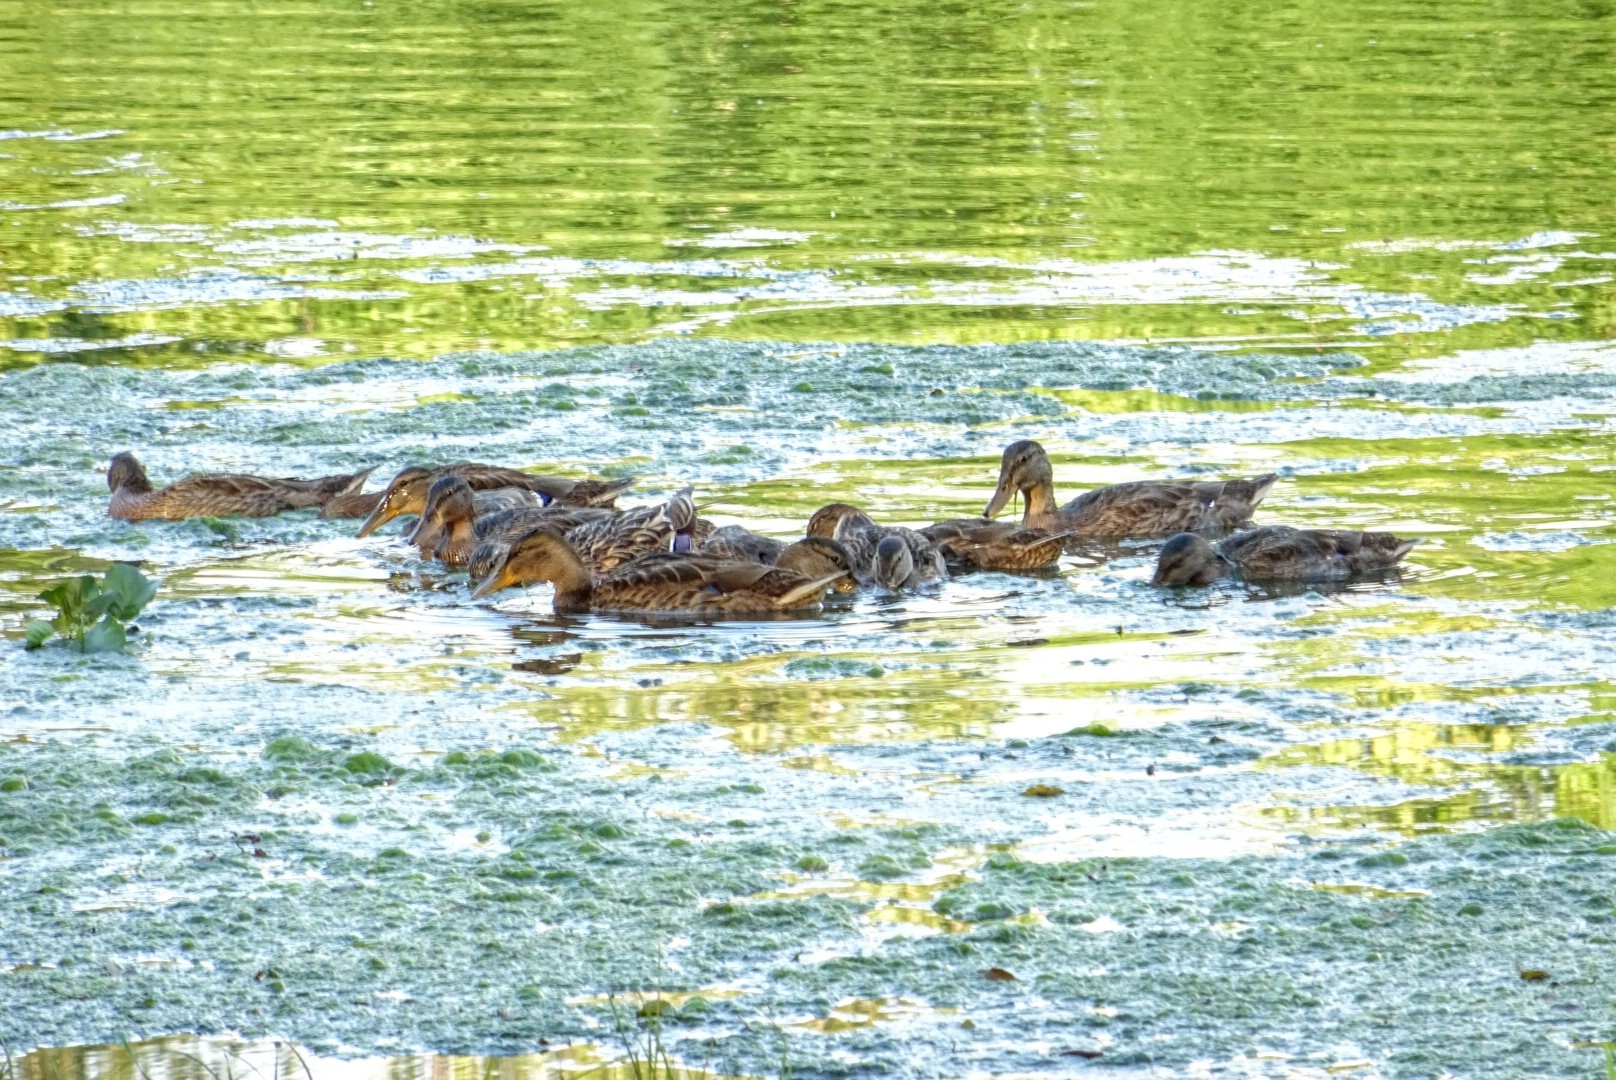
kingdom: Animalia
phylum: Chordata
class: Aves
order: Anseriformes
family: Anatidae
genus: Anas
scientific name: Anas platyrhynchos
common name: Mallard
